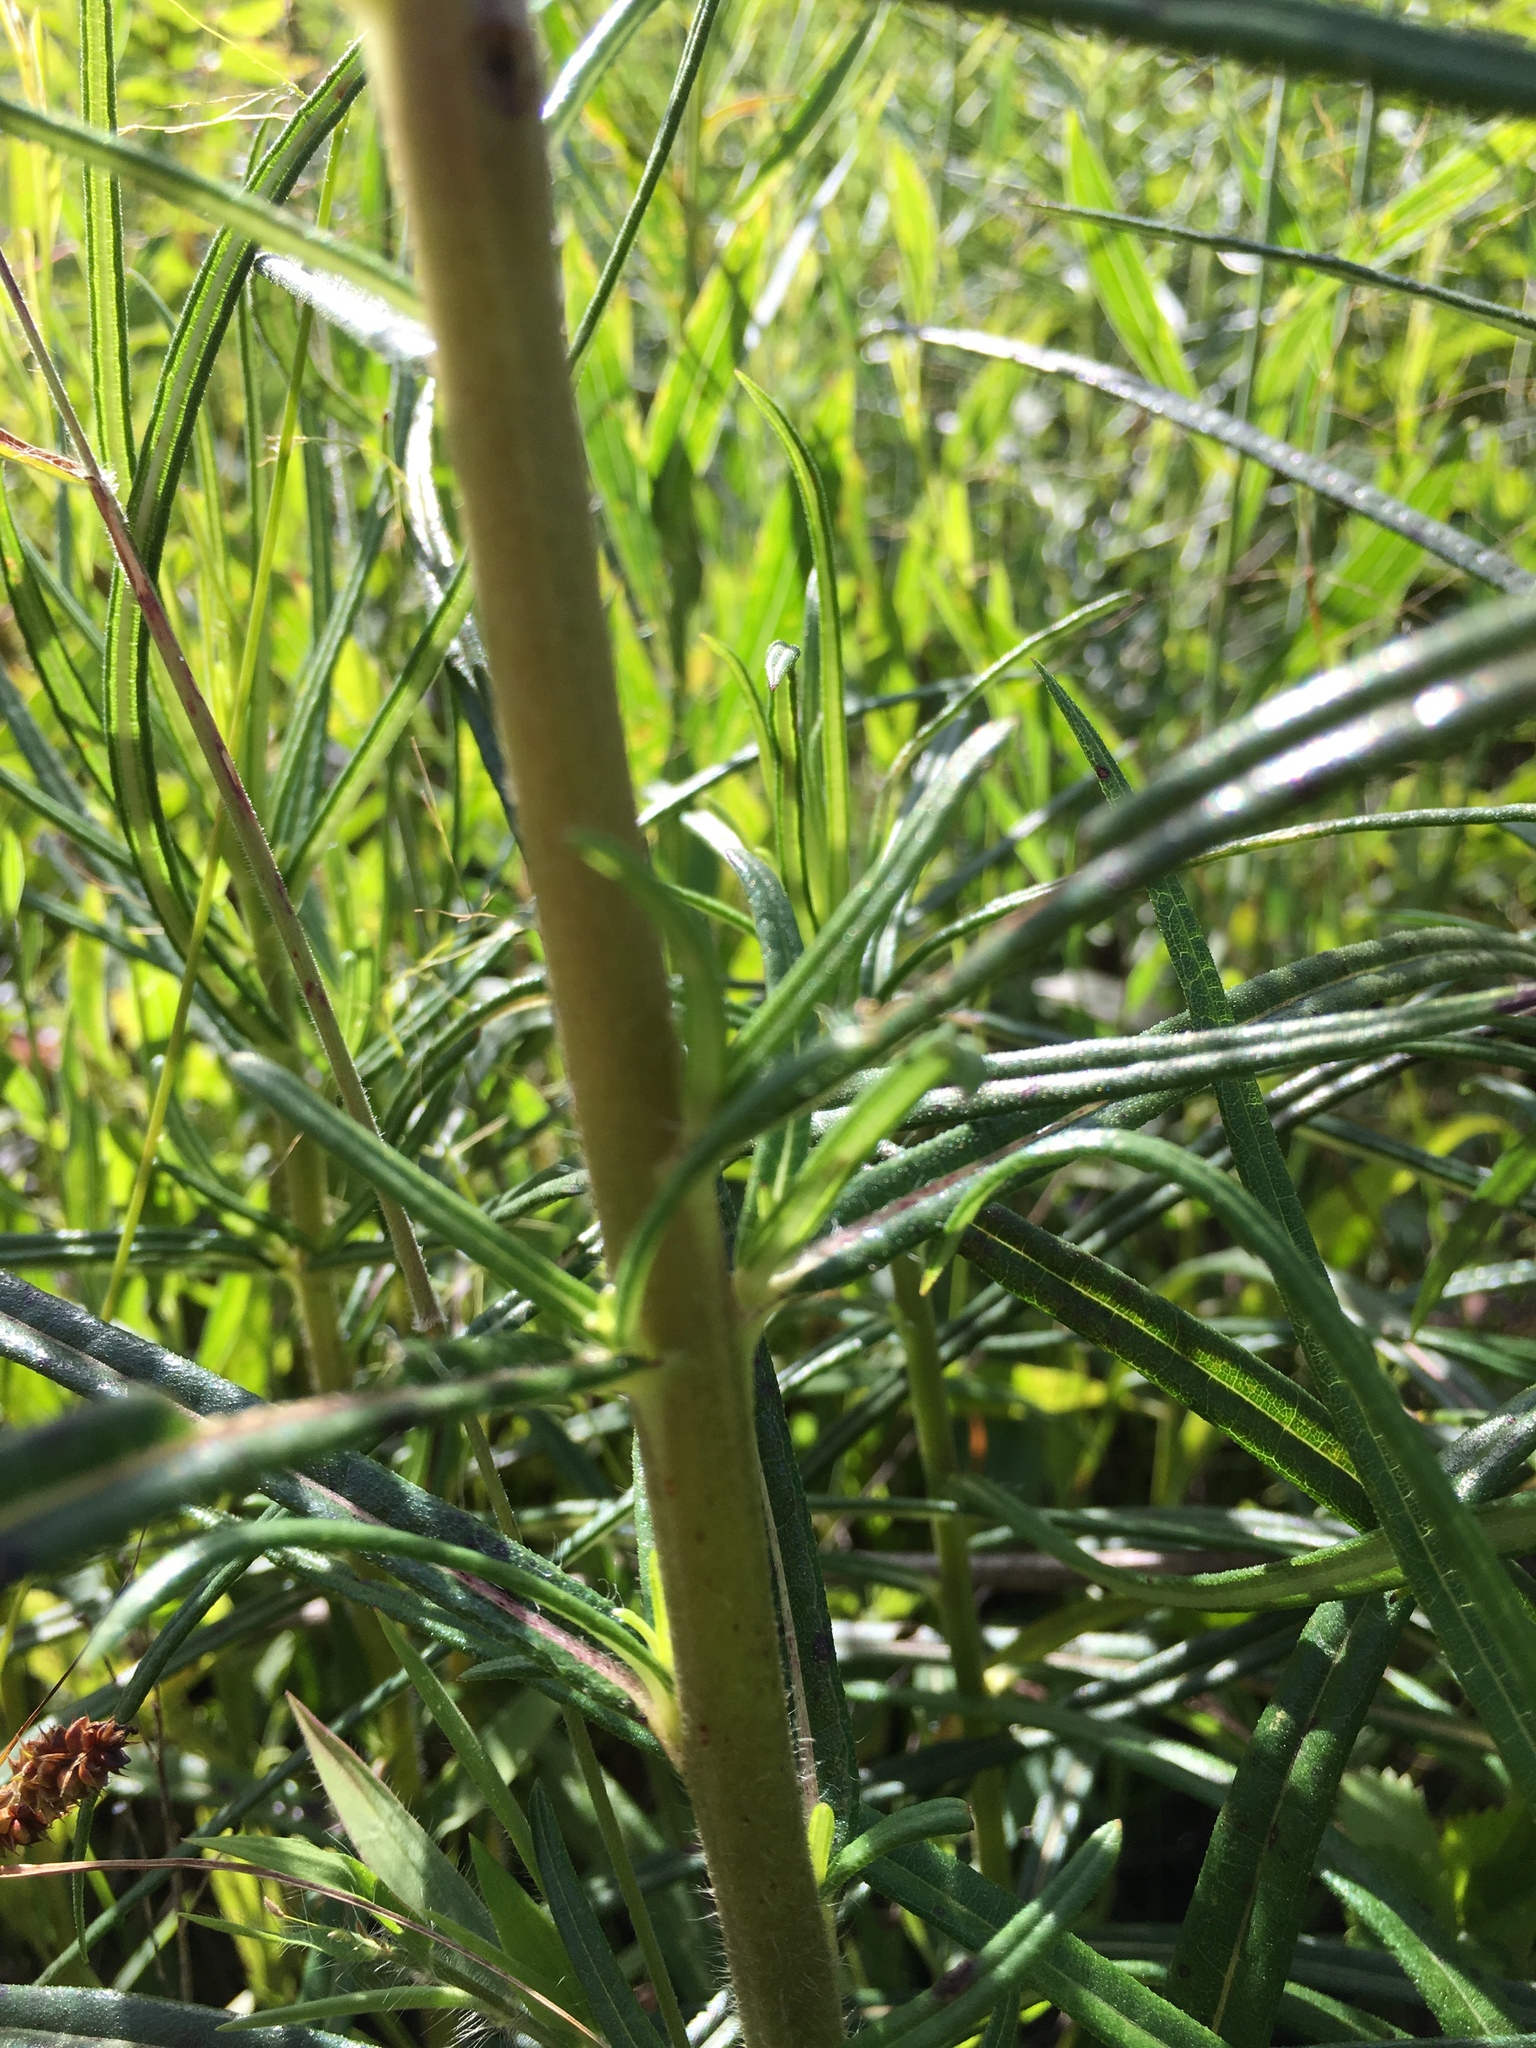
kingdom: Plantae
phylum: Tracheophyta
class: Magnoliopsida
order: Asterales
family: Asteraceae
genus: Helianthus
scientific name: Helianthus angustifolius
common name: Swamp sunflower
